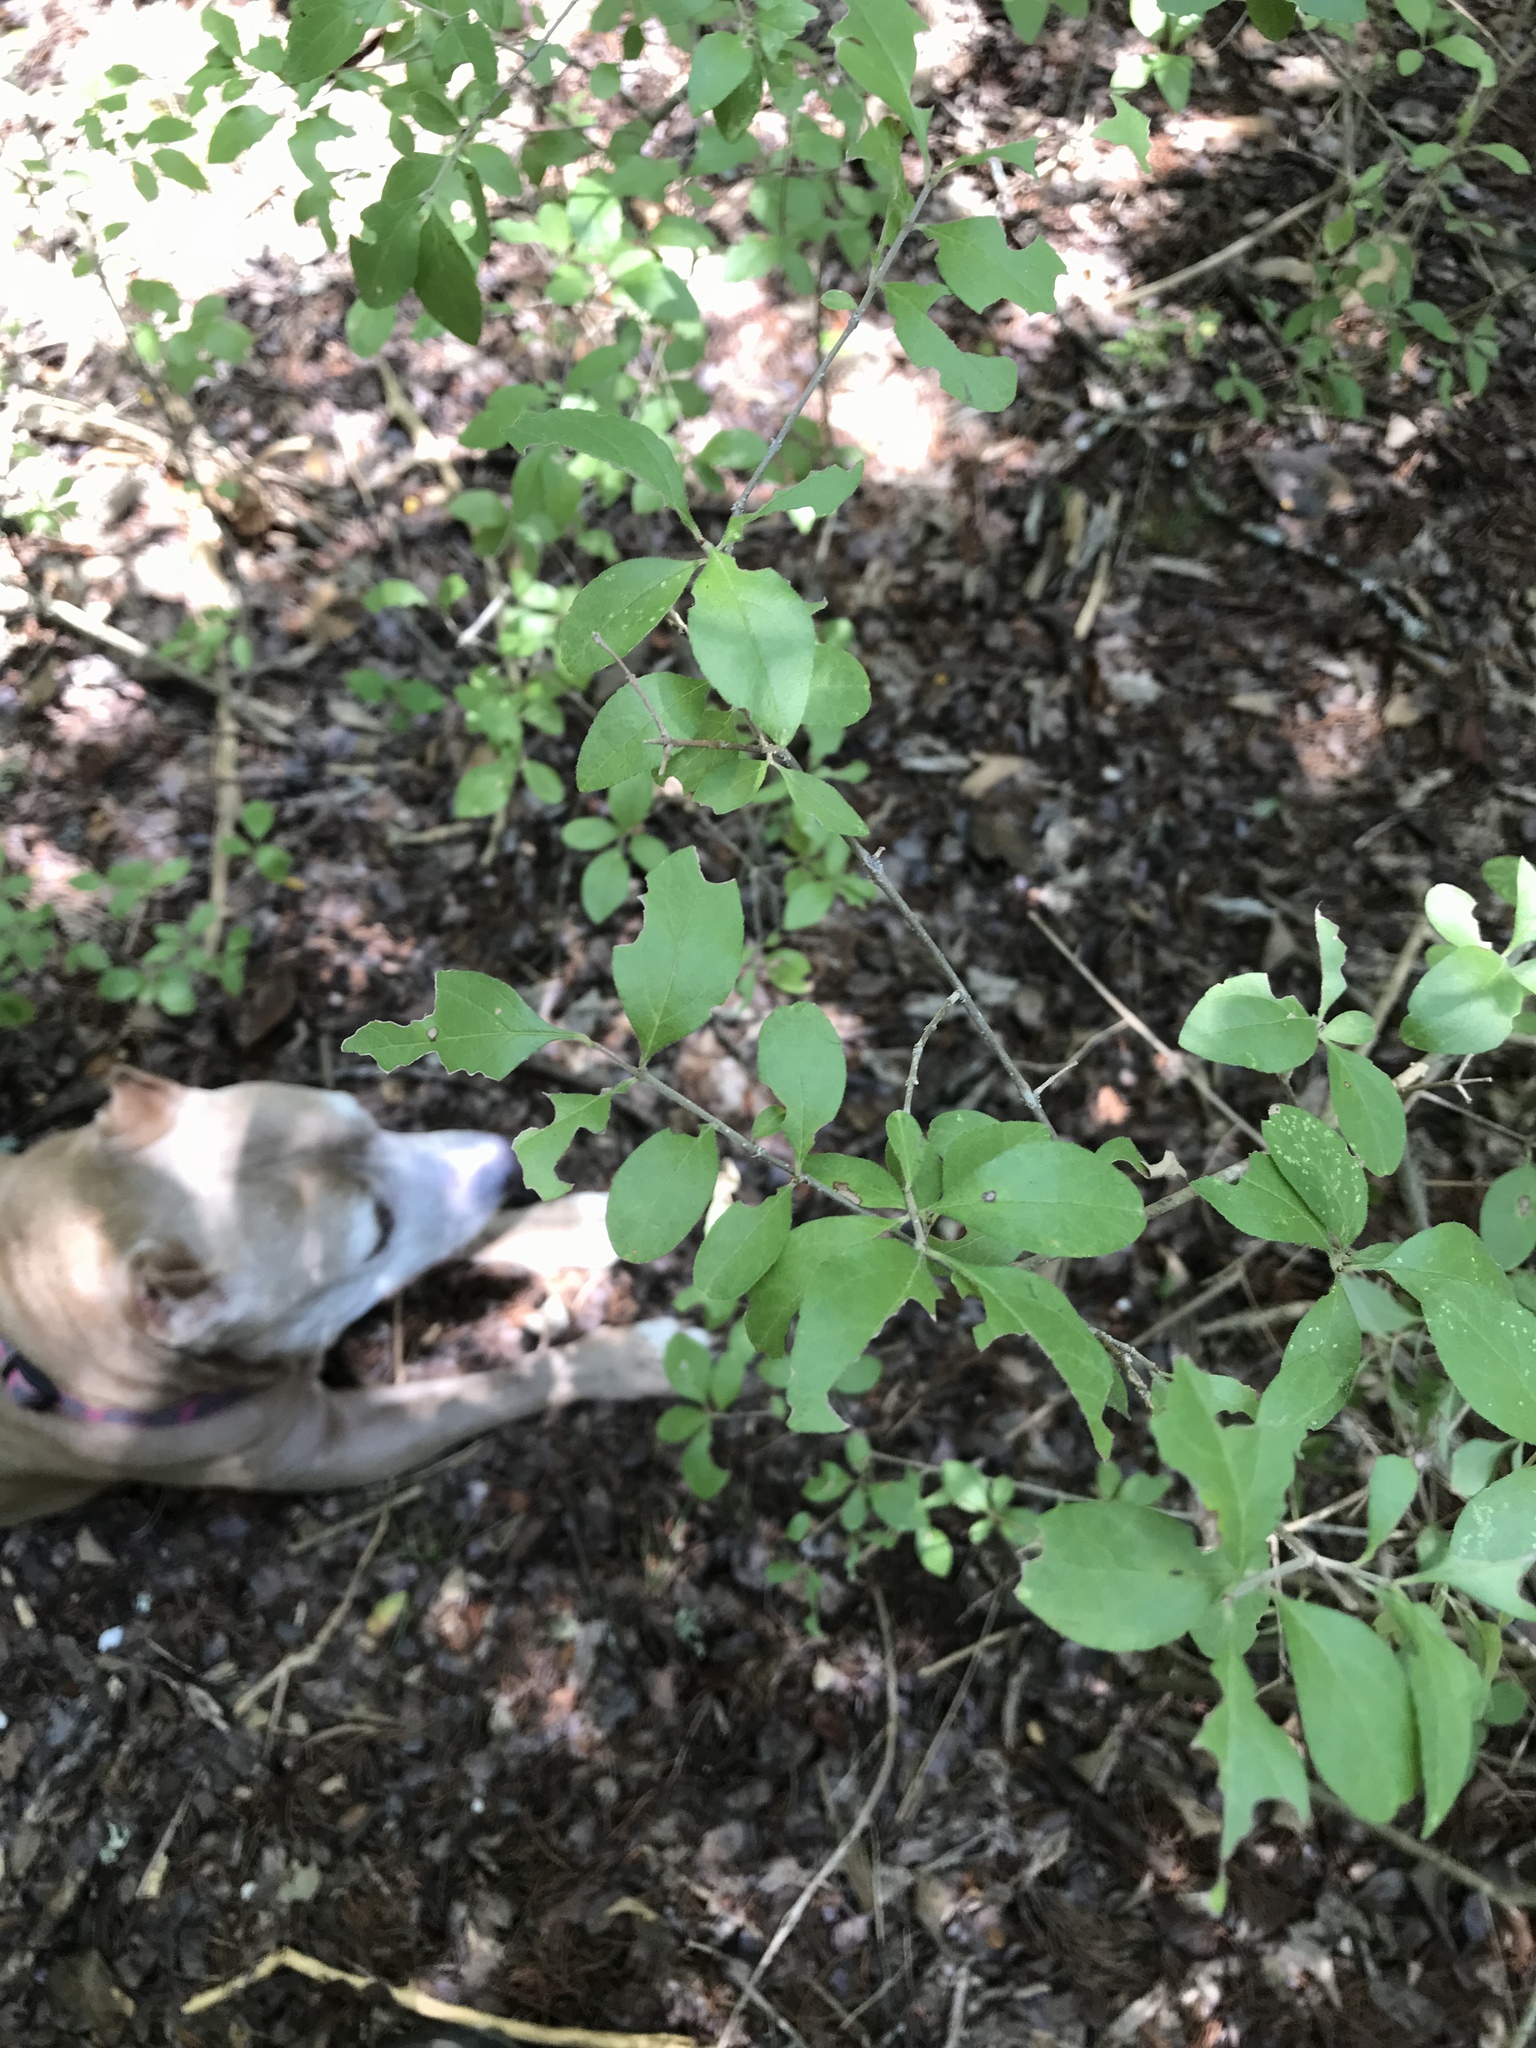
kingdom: Plantae
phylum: Tracheophyta
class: Magnoliopsida
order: Lamiales
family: Oleaceae
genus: Forestiera
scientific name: Forestiera pubescens
